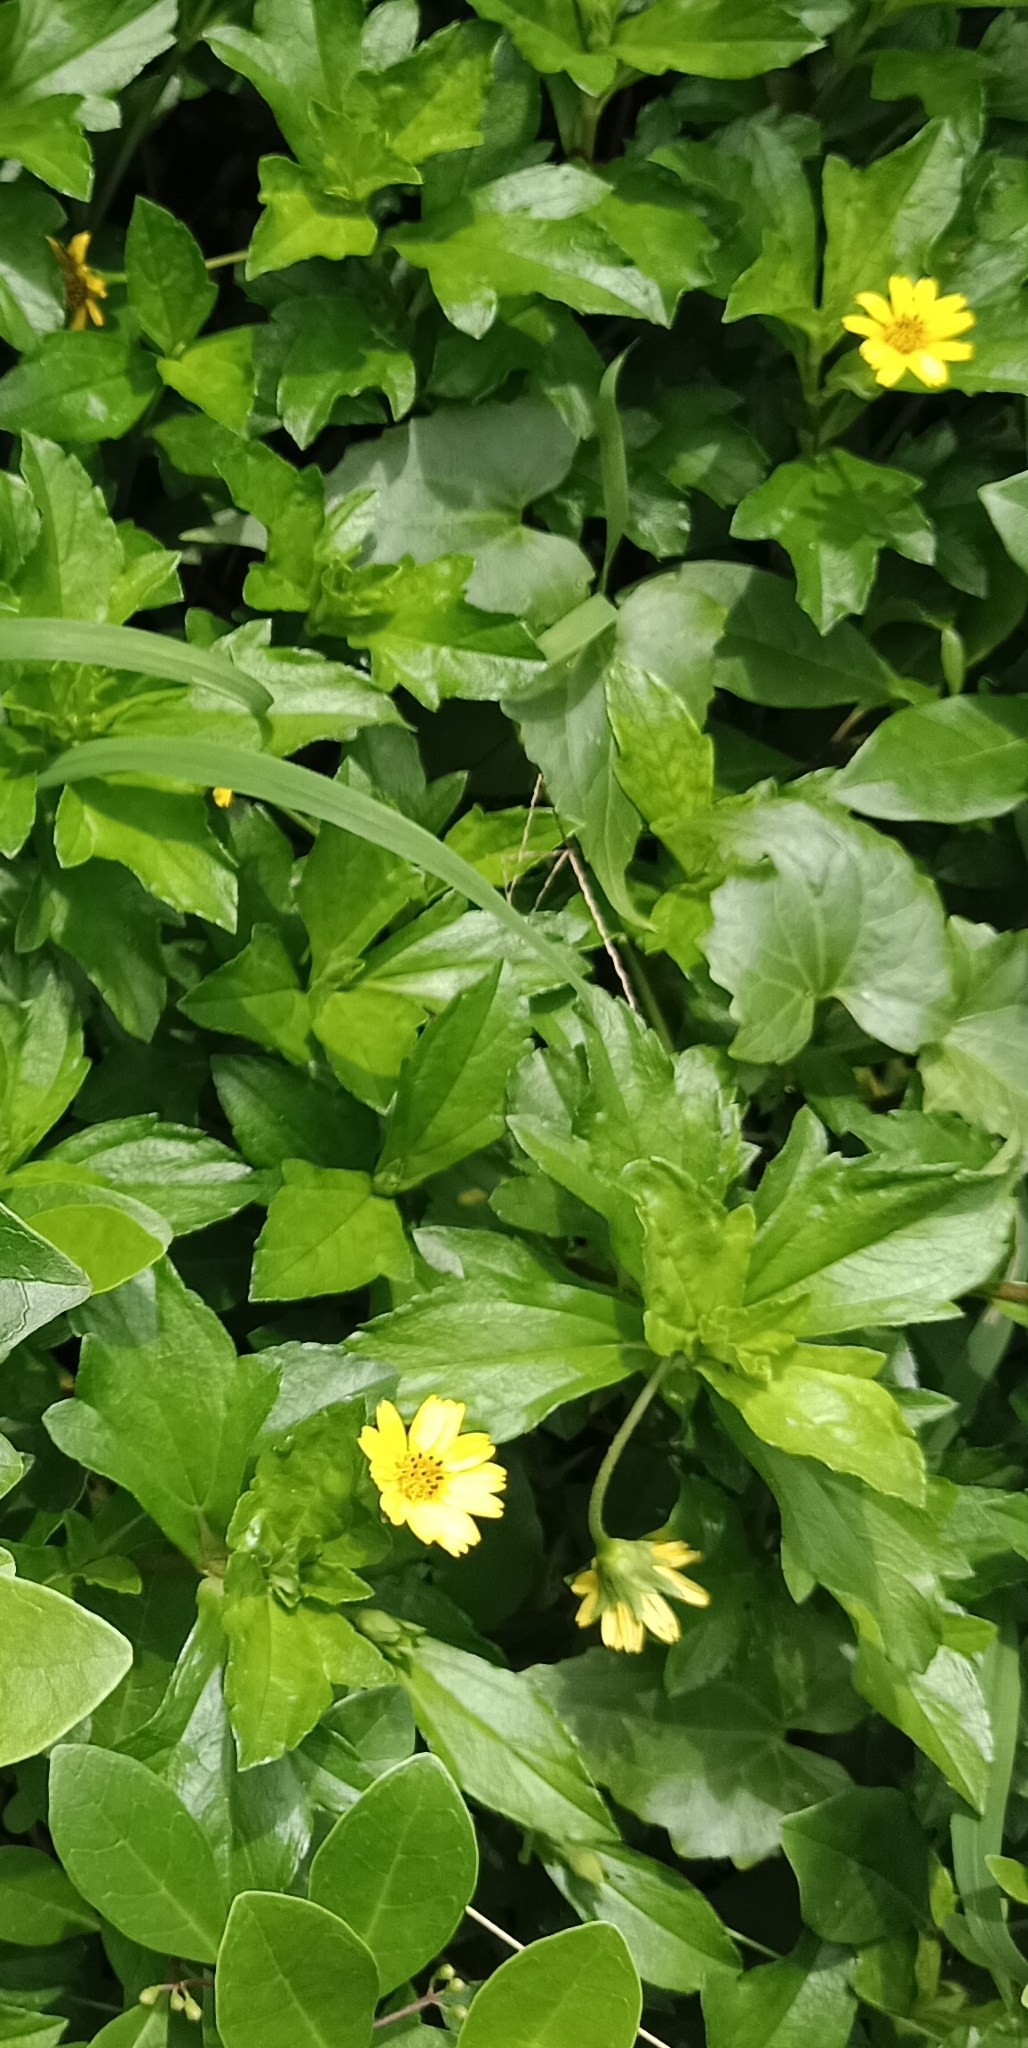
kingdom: Plantae
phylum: Tracheophyta
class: Magnoliopsida
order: Asterales
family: Asteraceae
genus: Sphagneticola
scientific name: Sphagneticola trilobata
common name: Bay biscayne creeping-oxeye
